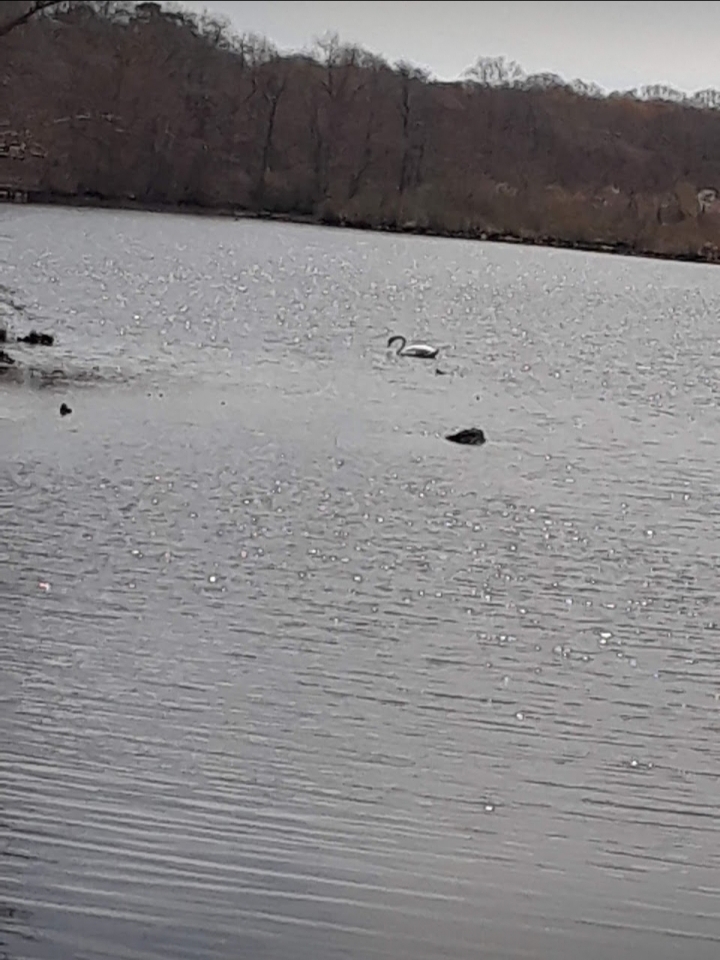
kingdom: Animalia
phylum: Chordata
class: Aves
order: Anseriformes
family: Anatidae
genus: Cygnus
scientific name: Cygnus olor
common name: Mute swan
